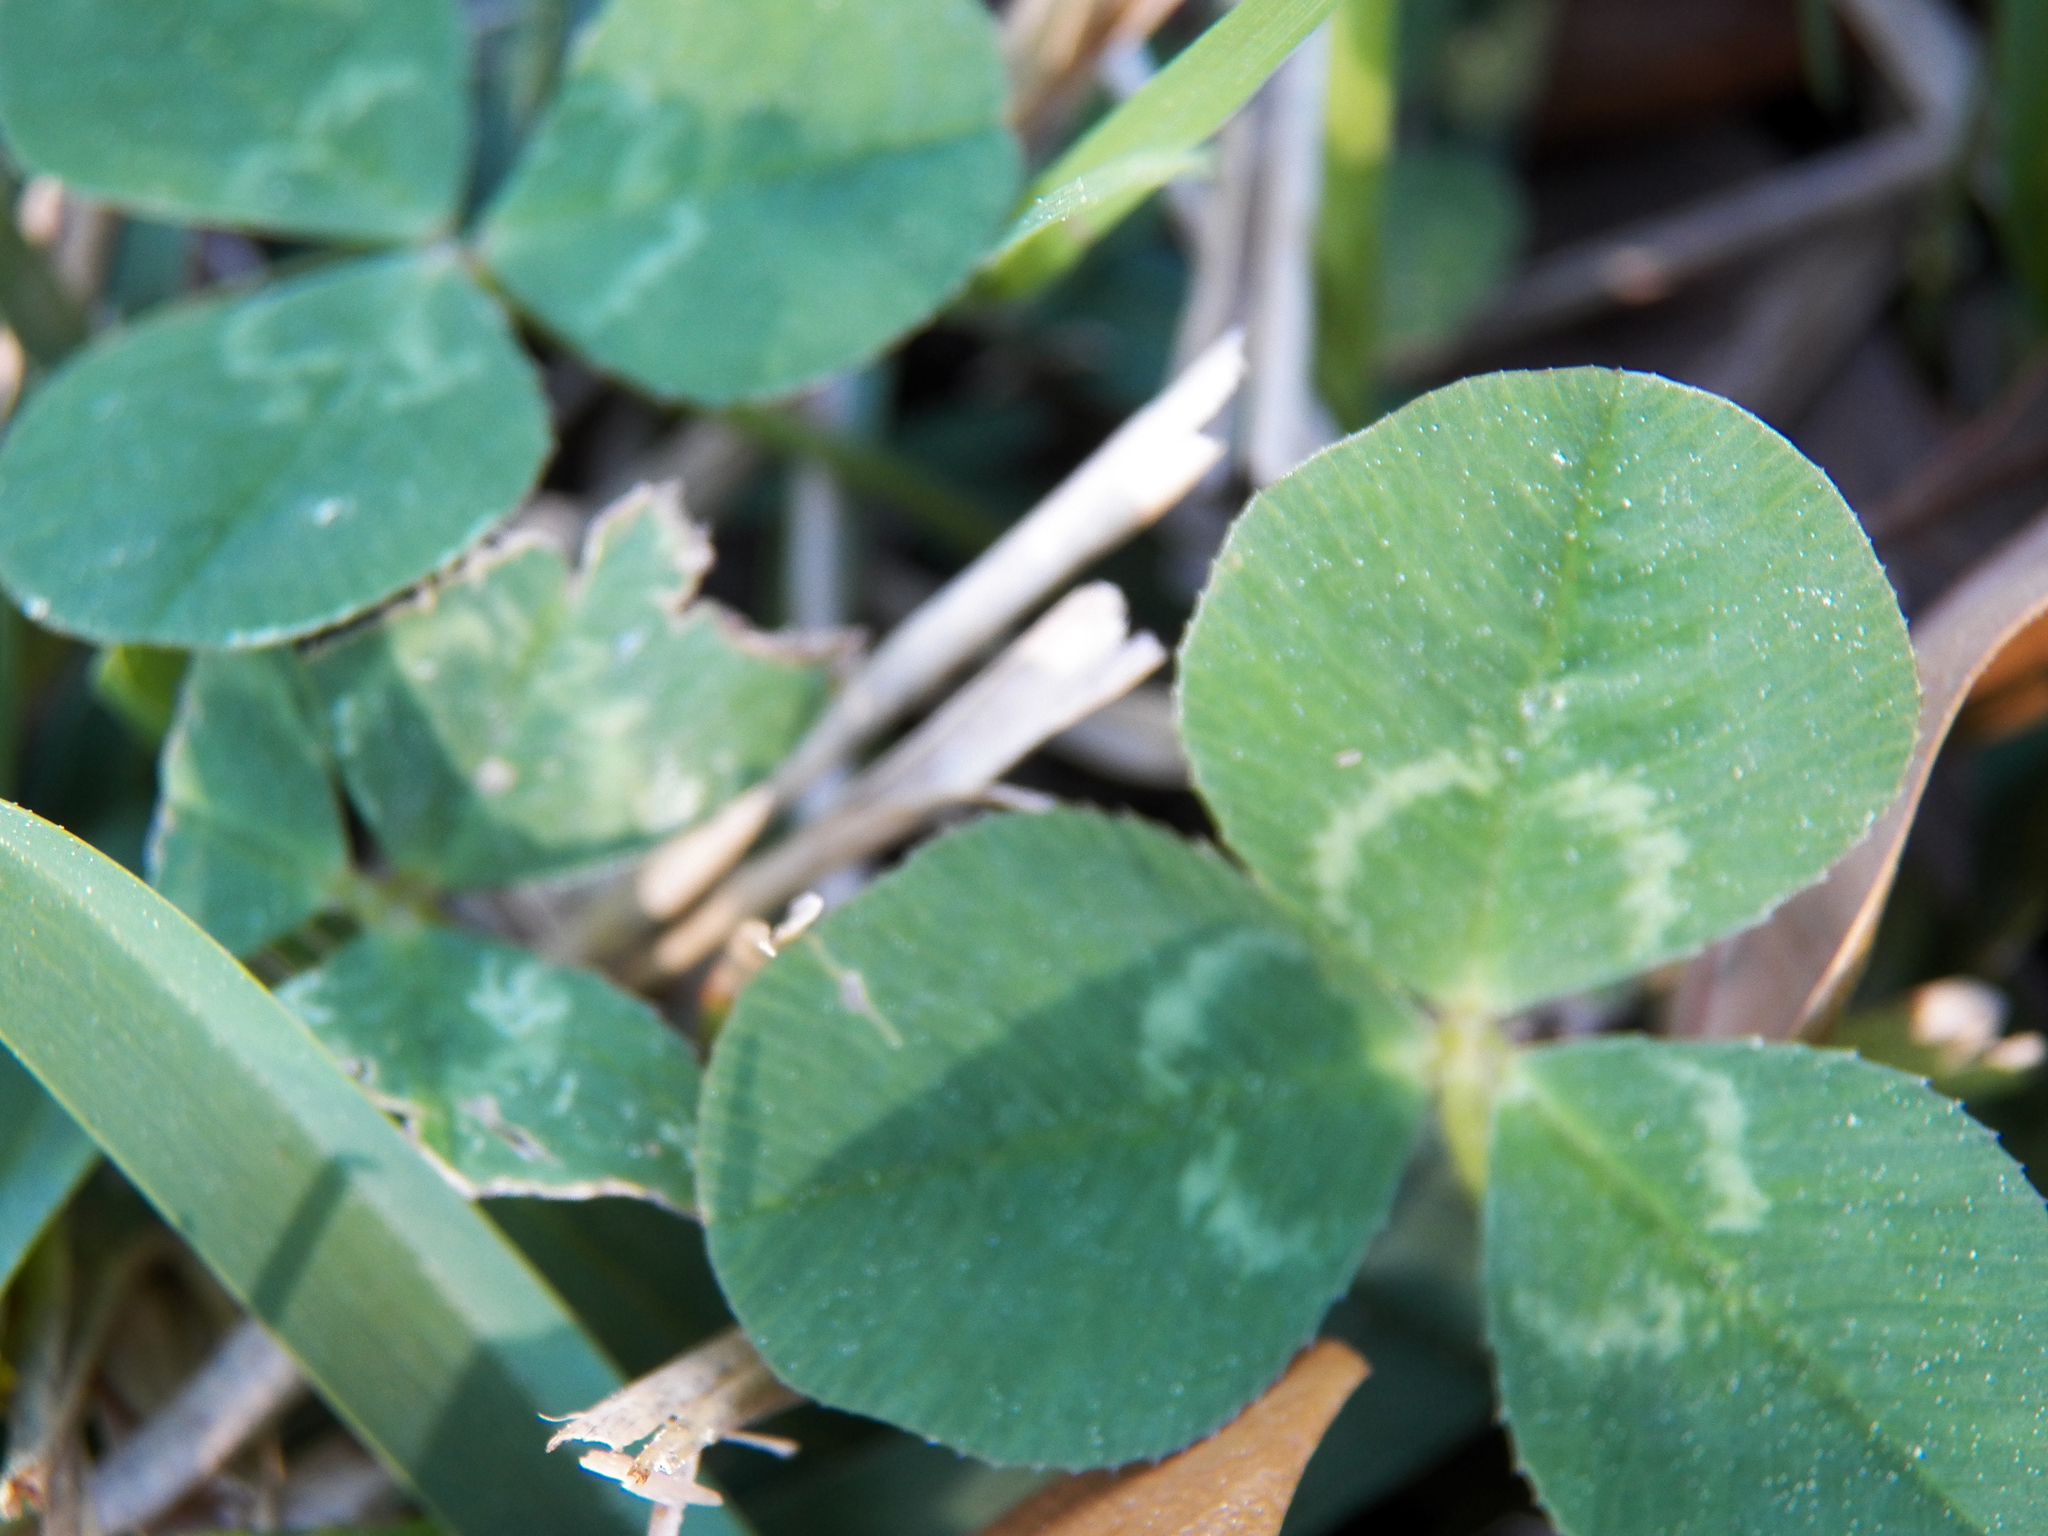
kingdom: Plantae
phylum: Tracheophyta
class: Magnoliopsida
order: Fabales
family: Fabaceae
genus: Trifolium
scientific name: Trifolium repens
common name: White clover
